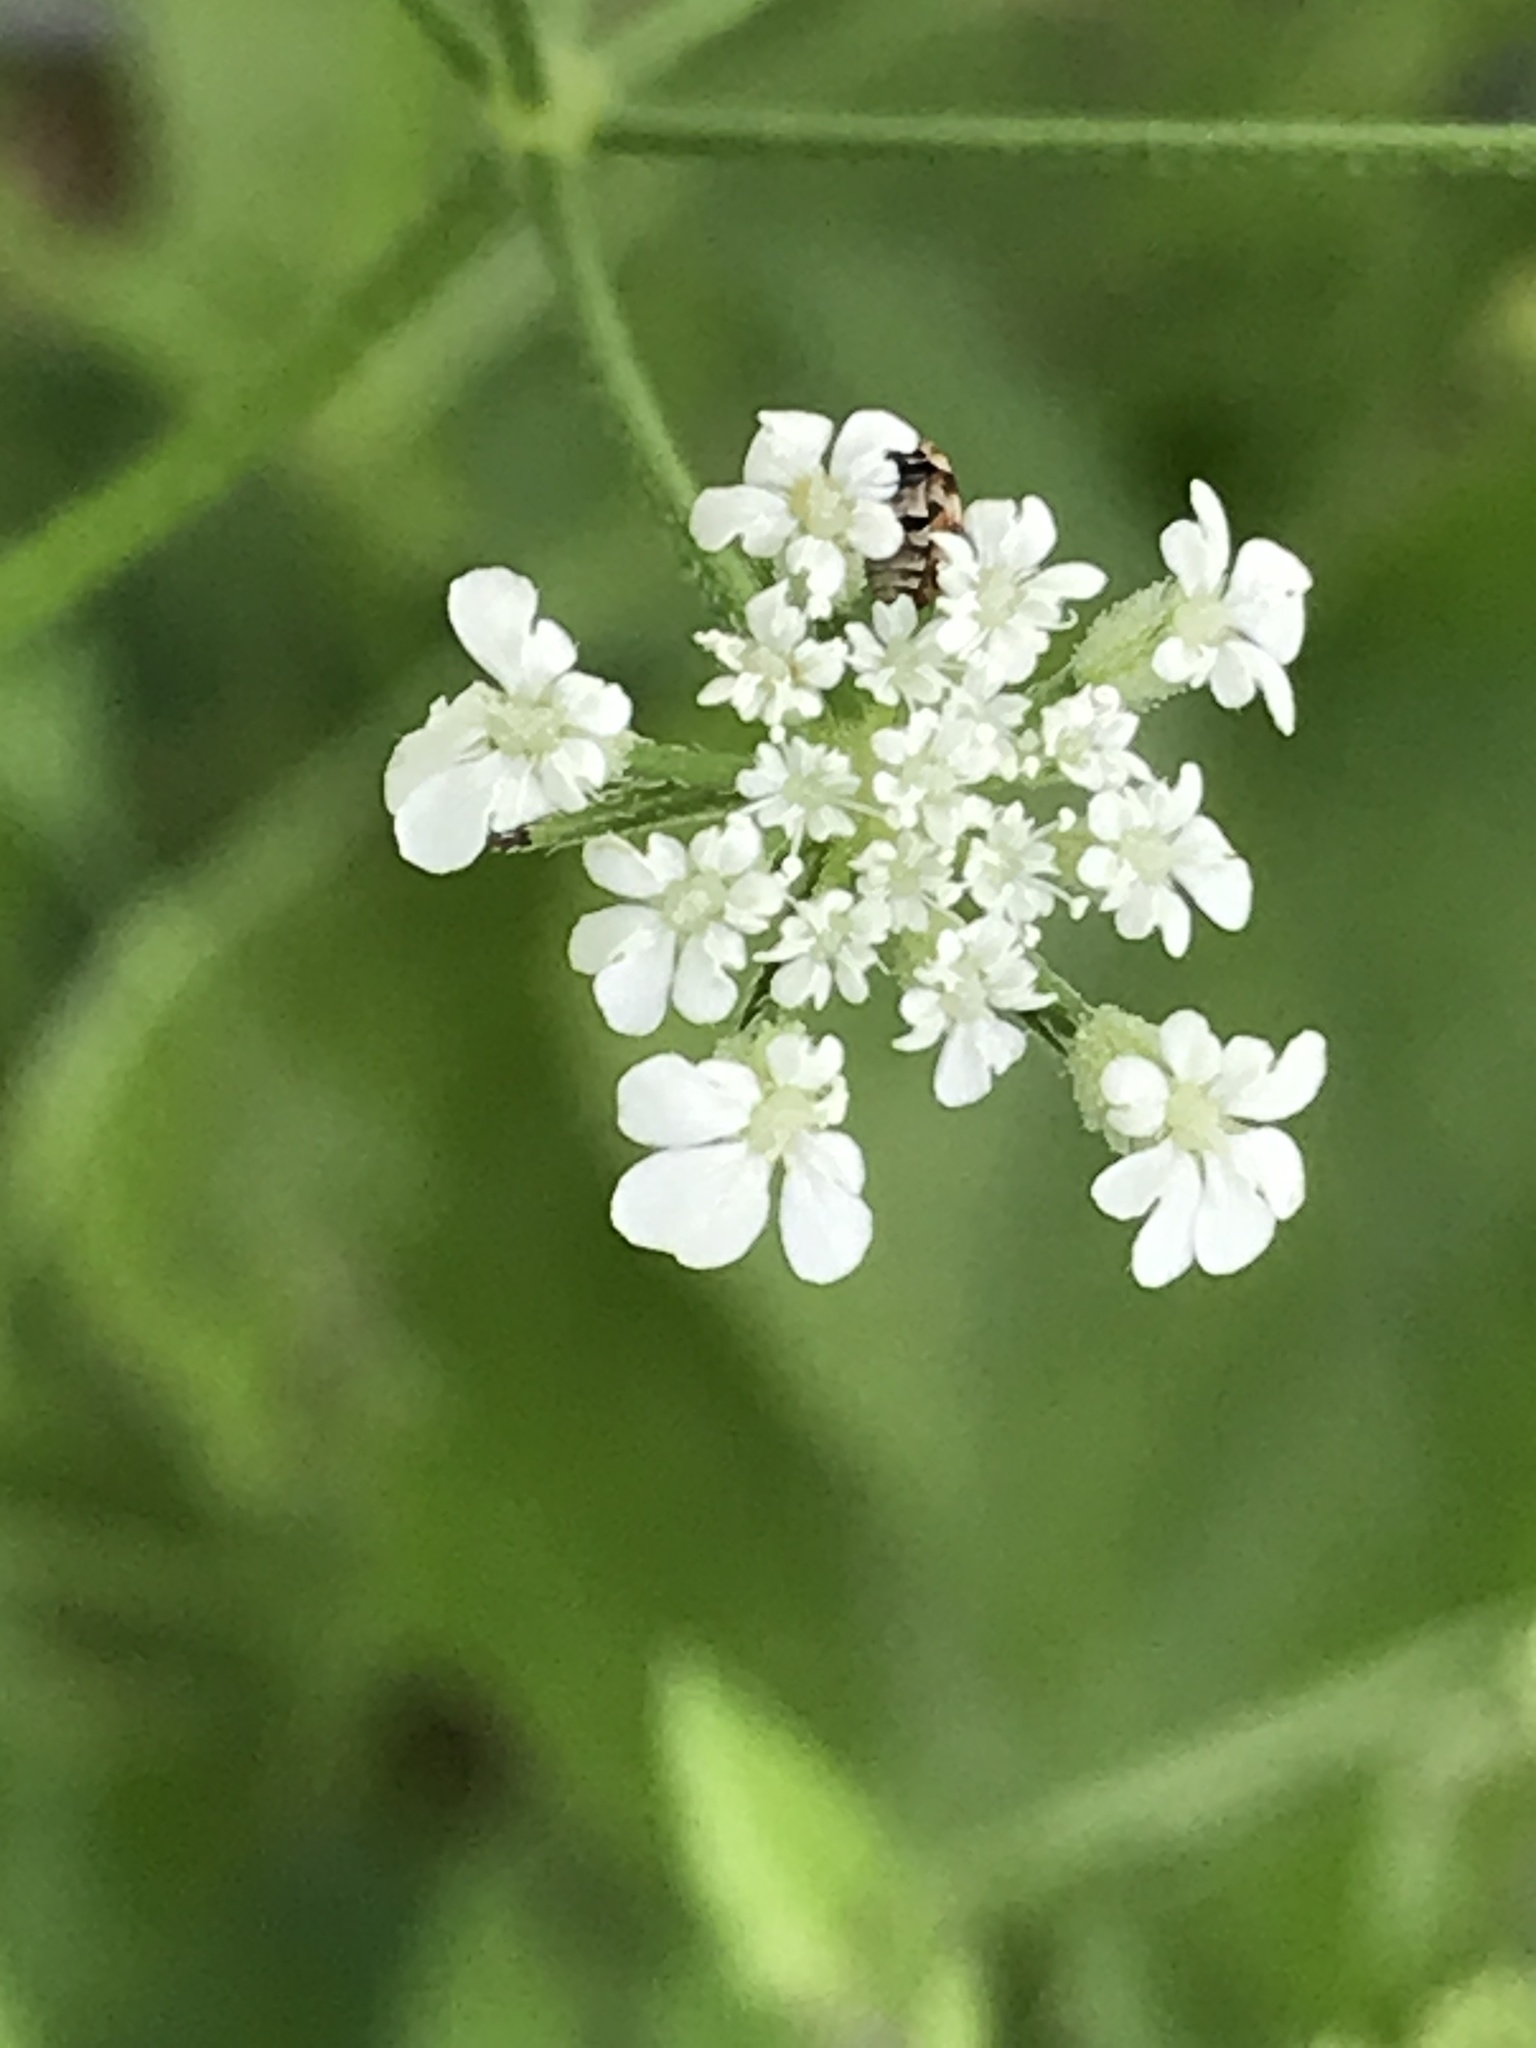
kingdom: Plantae
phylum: Tracheophyta
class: Magnoliopsida
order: Apiales
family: Apiaceae
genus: Torilis
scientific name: Torilis arvensis
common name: Spreading hedge-parsley
